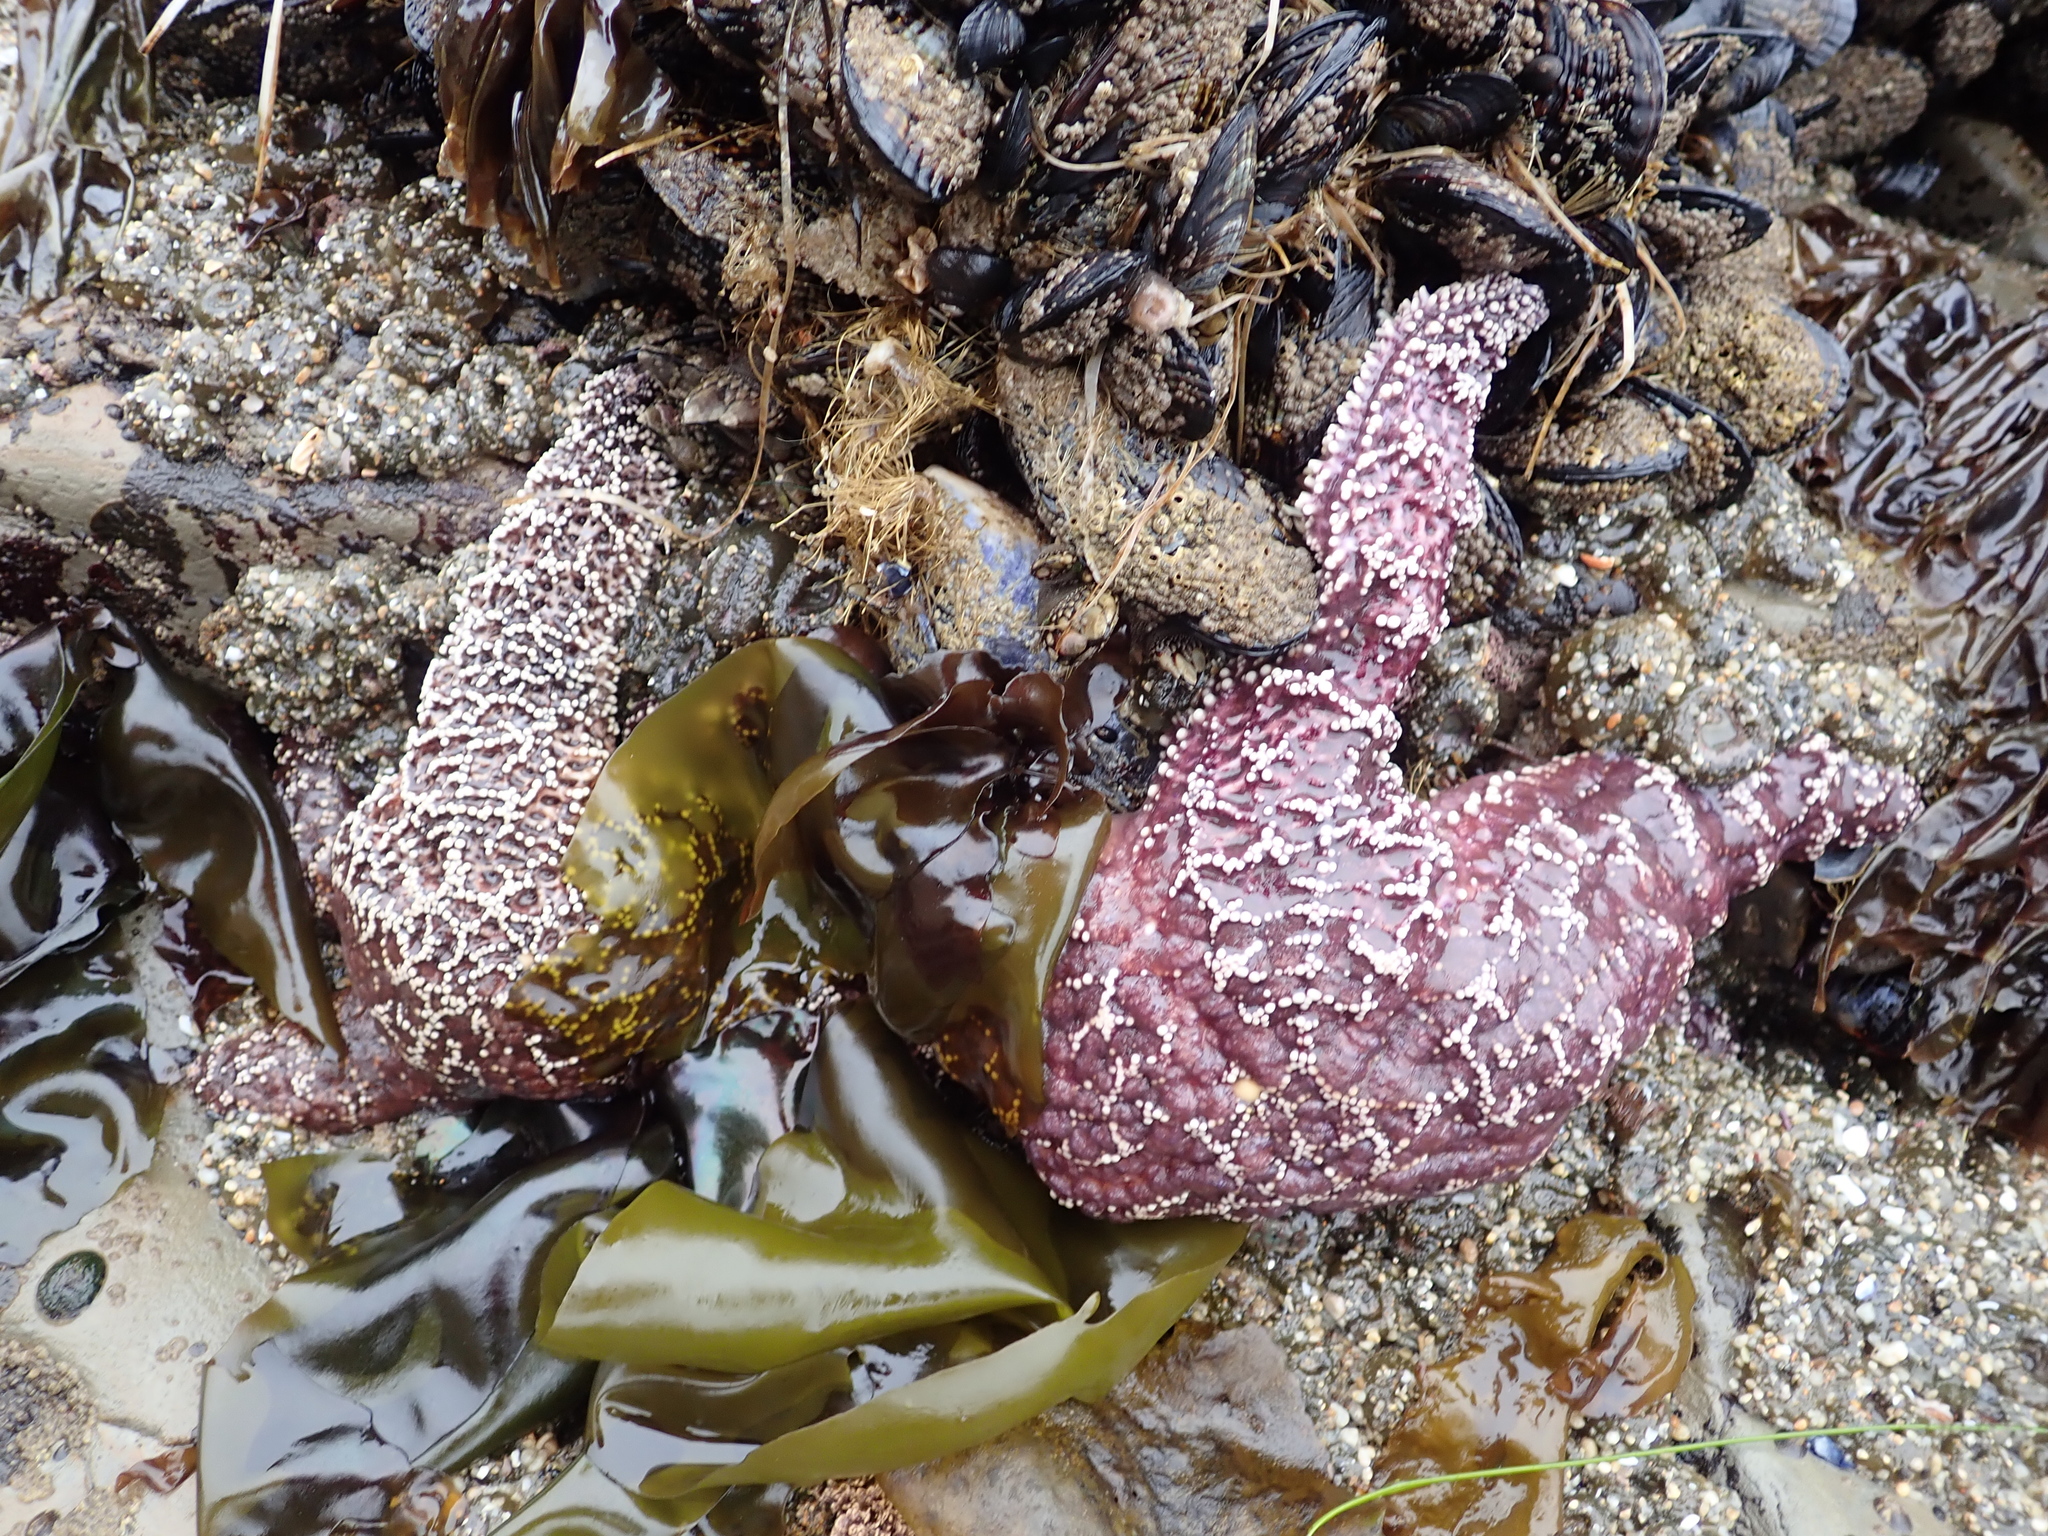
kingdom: Animalia
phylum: Echinodermata
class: Asteroidea
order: Forcipulatida
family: Asteriidae
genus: Pisaster
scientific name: Pisaster ochraceus
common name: Ochre stars
